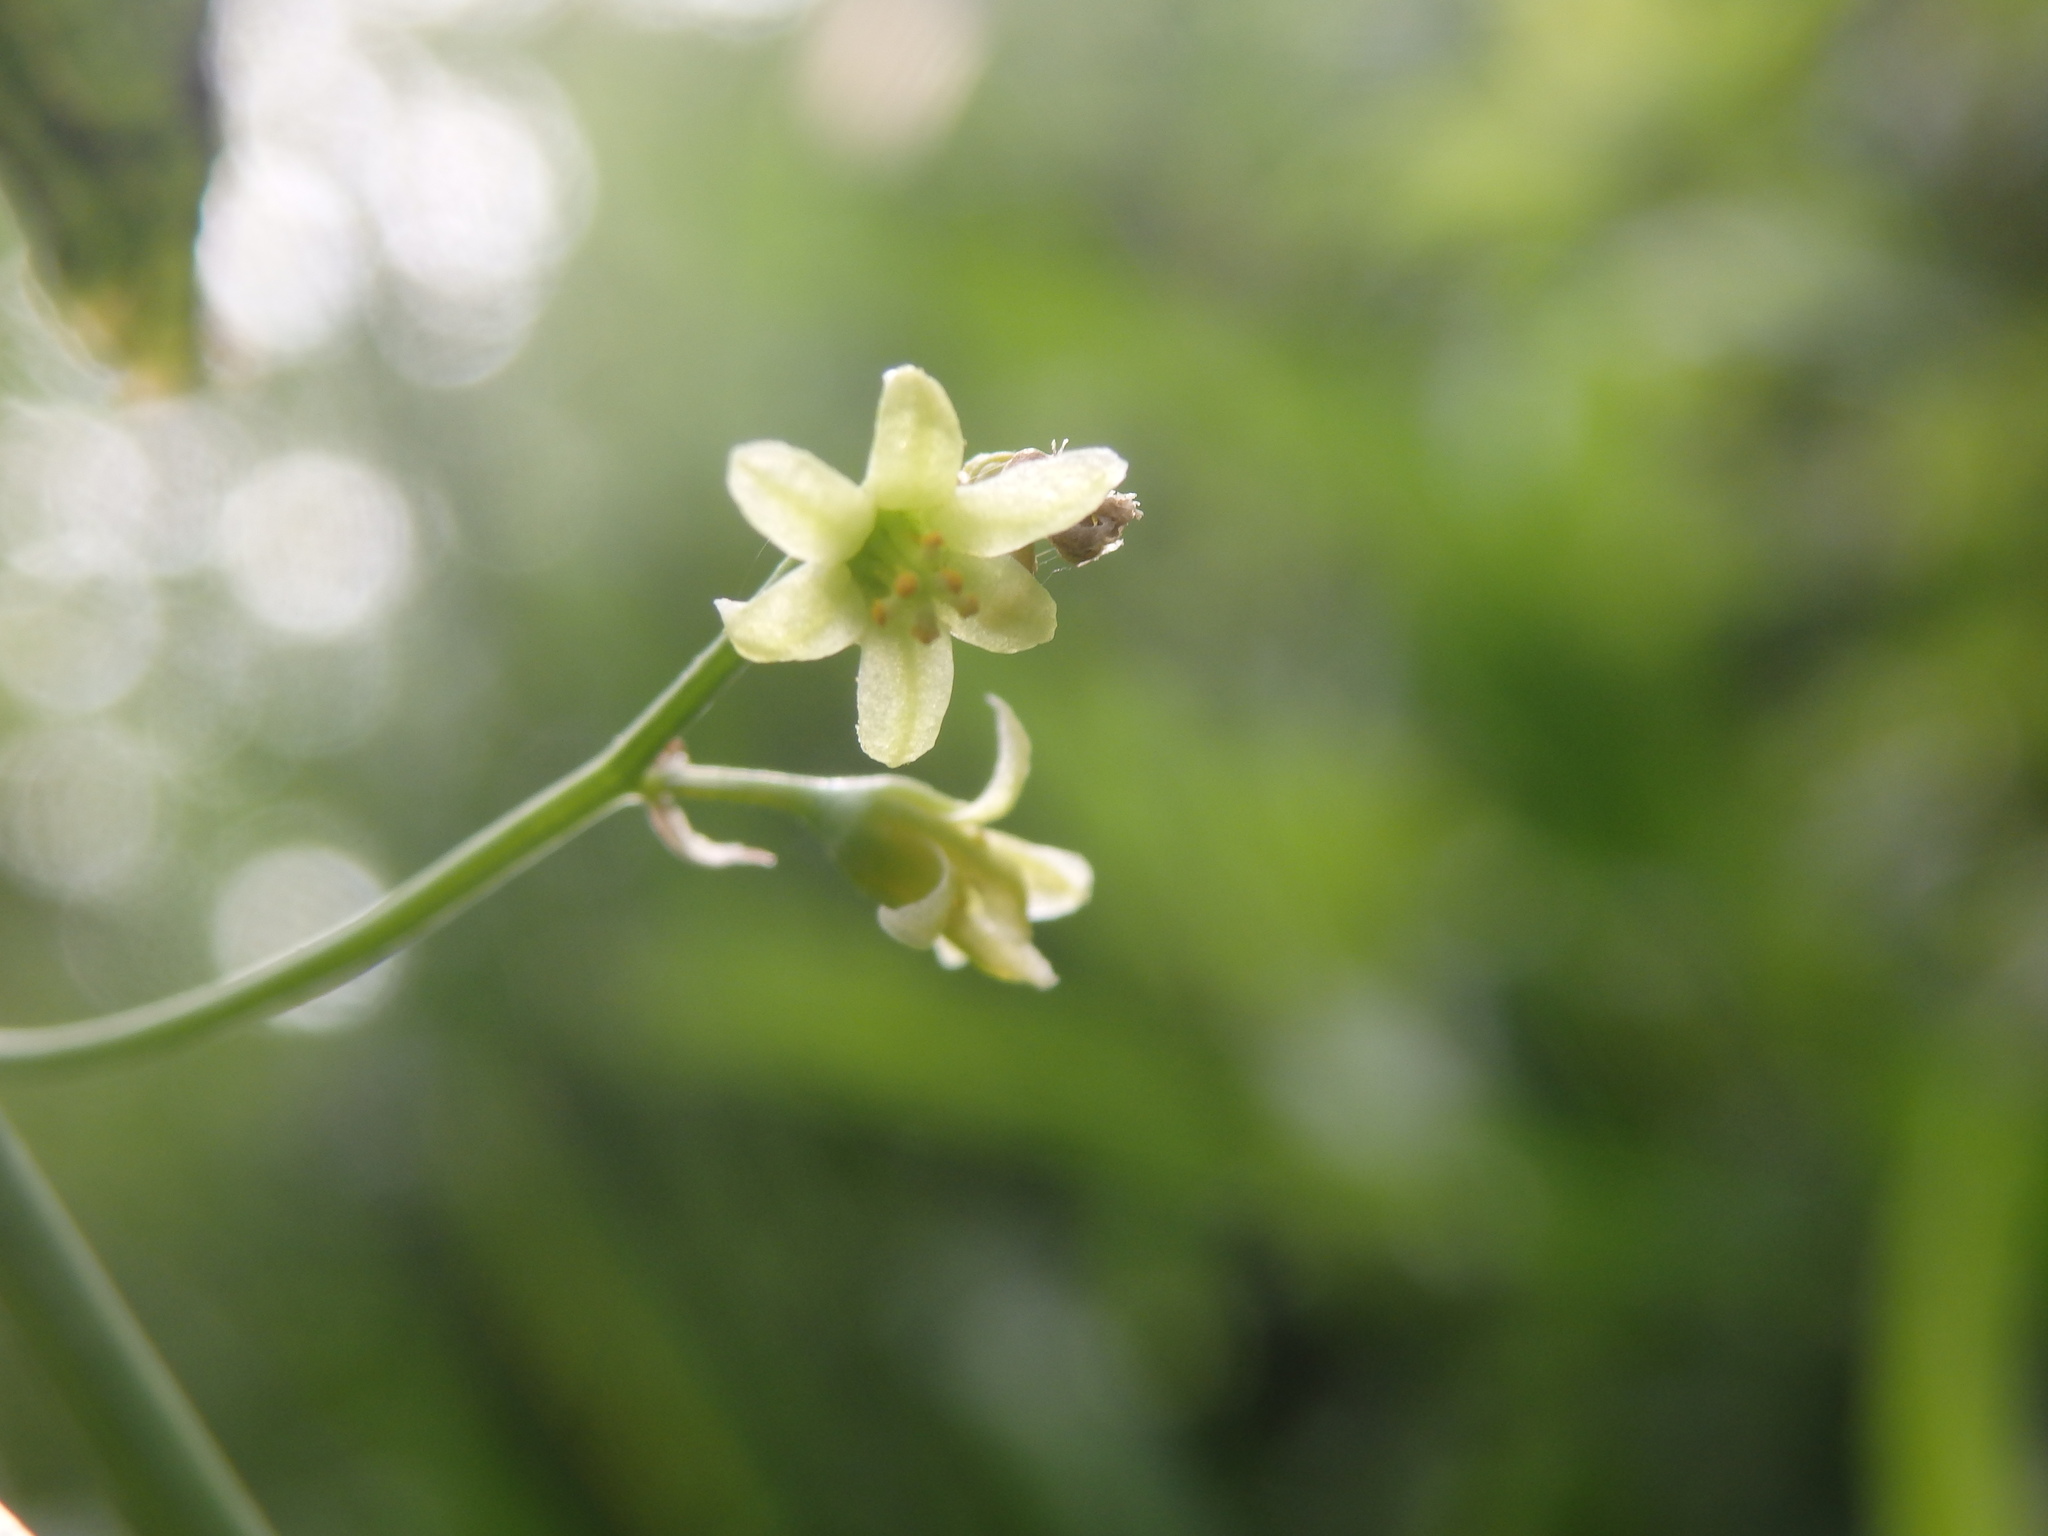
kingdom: Plantae
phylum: Tracheophyta
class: Liliopsida
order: Dioscoreales
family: Dioscoreaceae
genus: Dioscorea
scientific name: Dioscorea communis
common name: Black-bindweed
